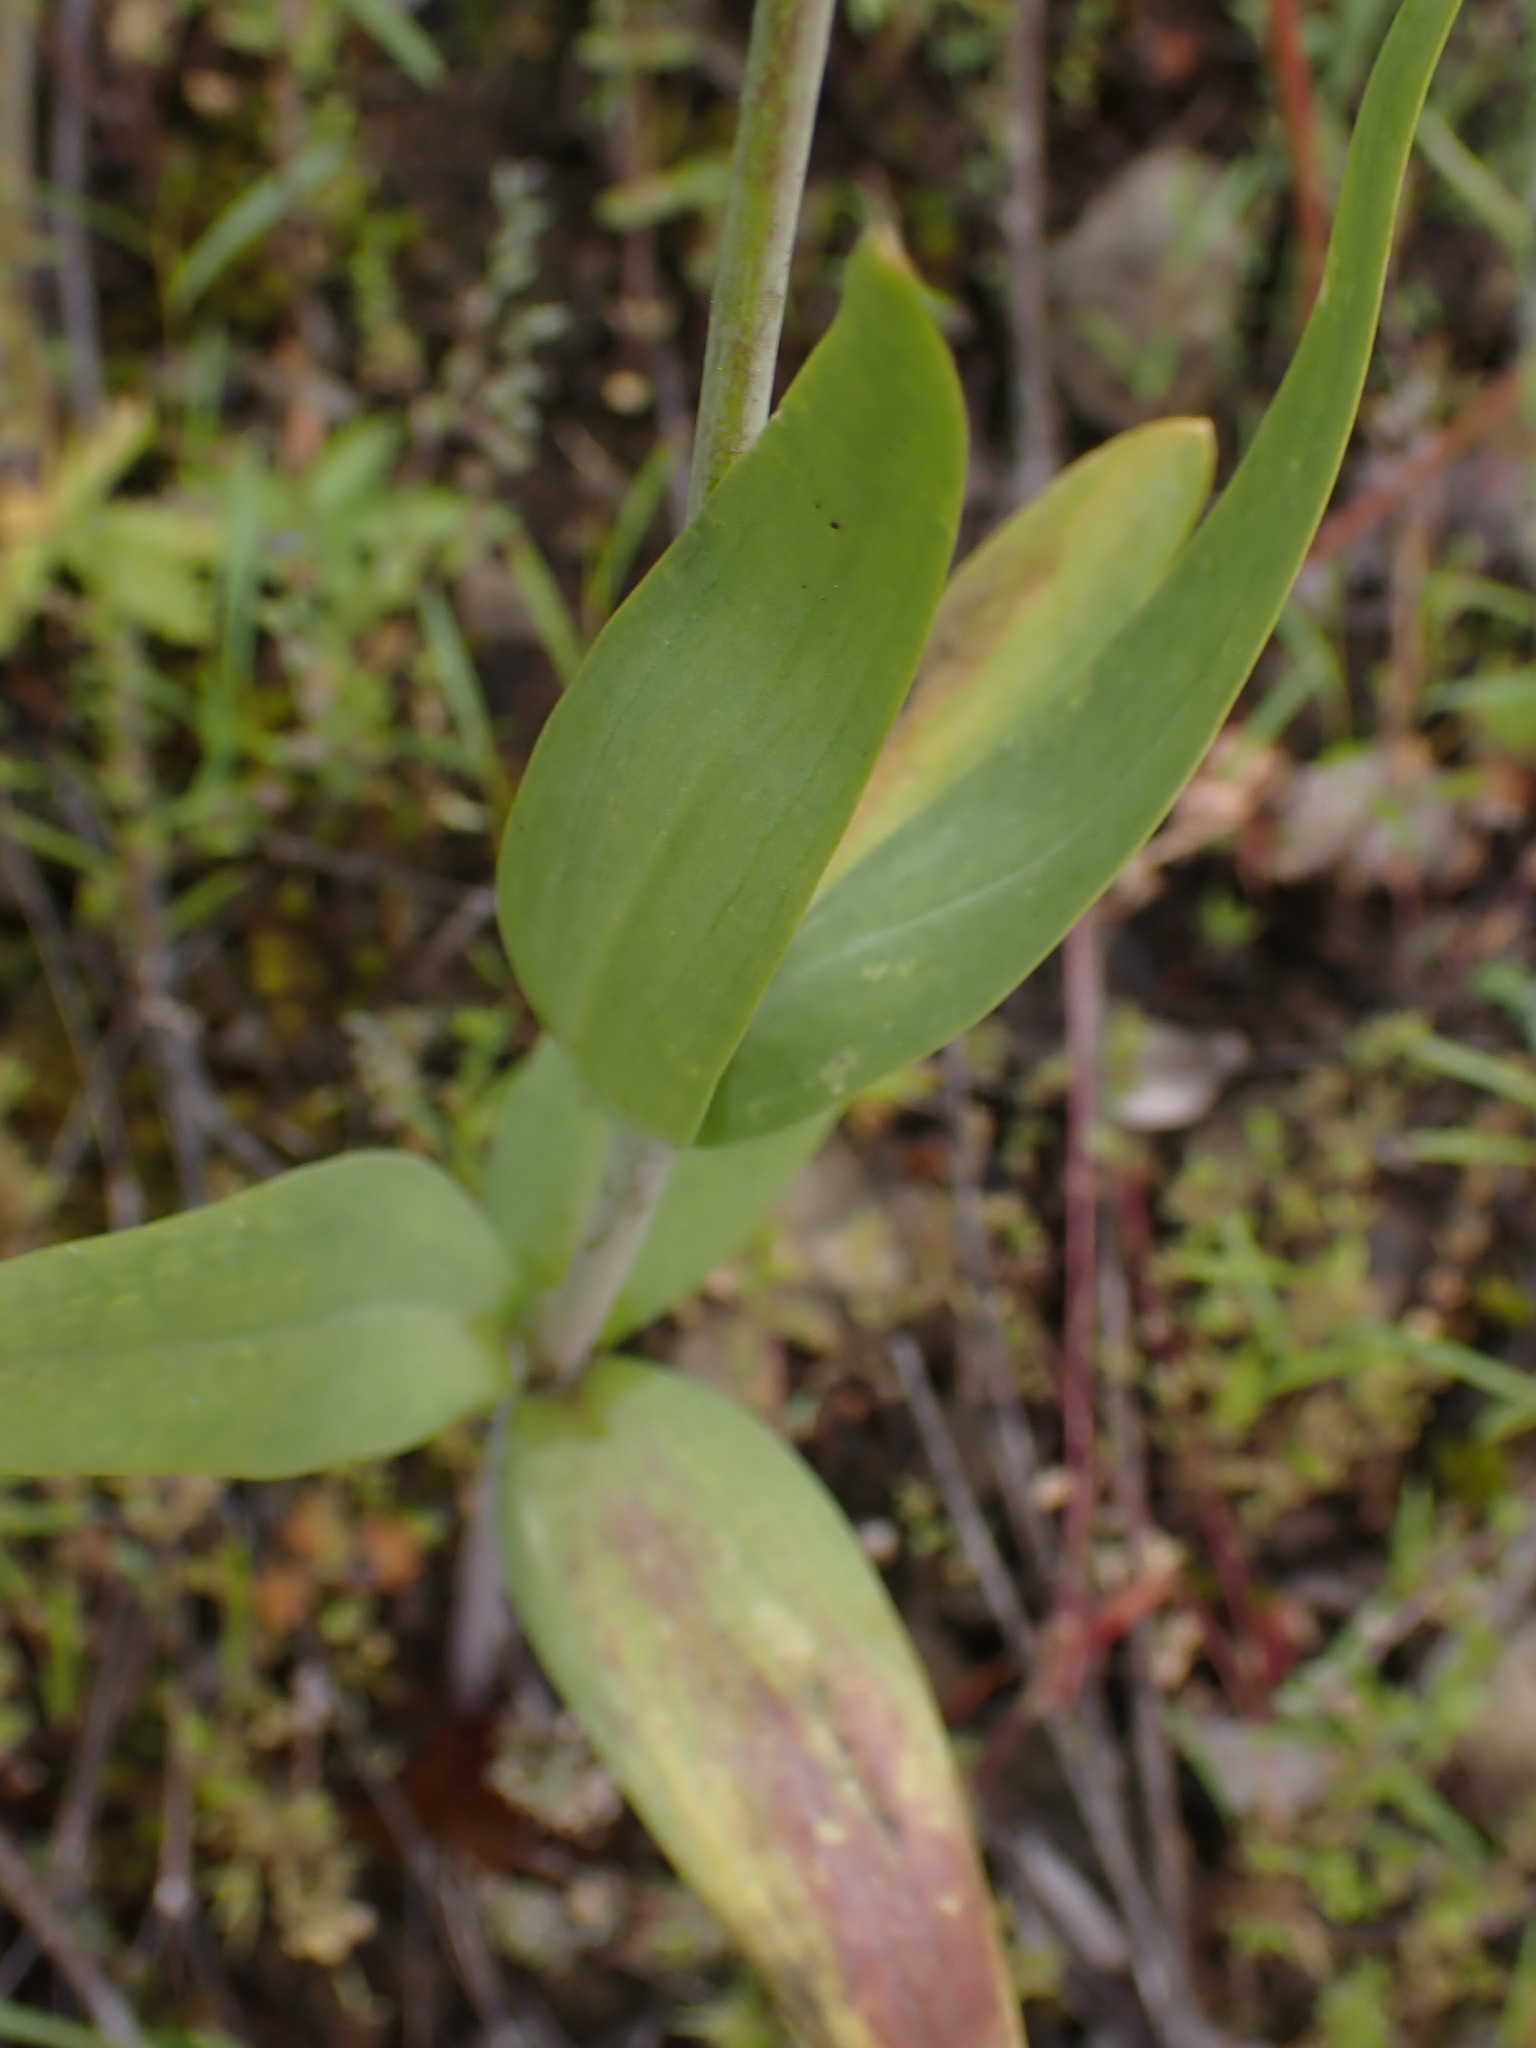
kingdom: Plantae
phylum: Tracheophyta
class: Liliopsida
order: Liliales
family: Liliaceae
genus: Fritillaria
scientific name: Fritillaria affinis
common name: Ojai fritillary
